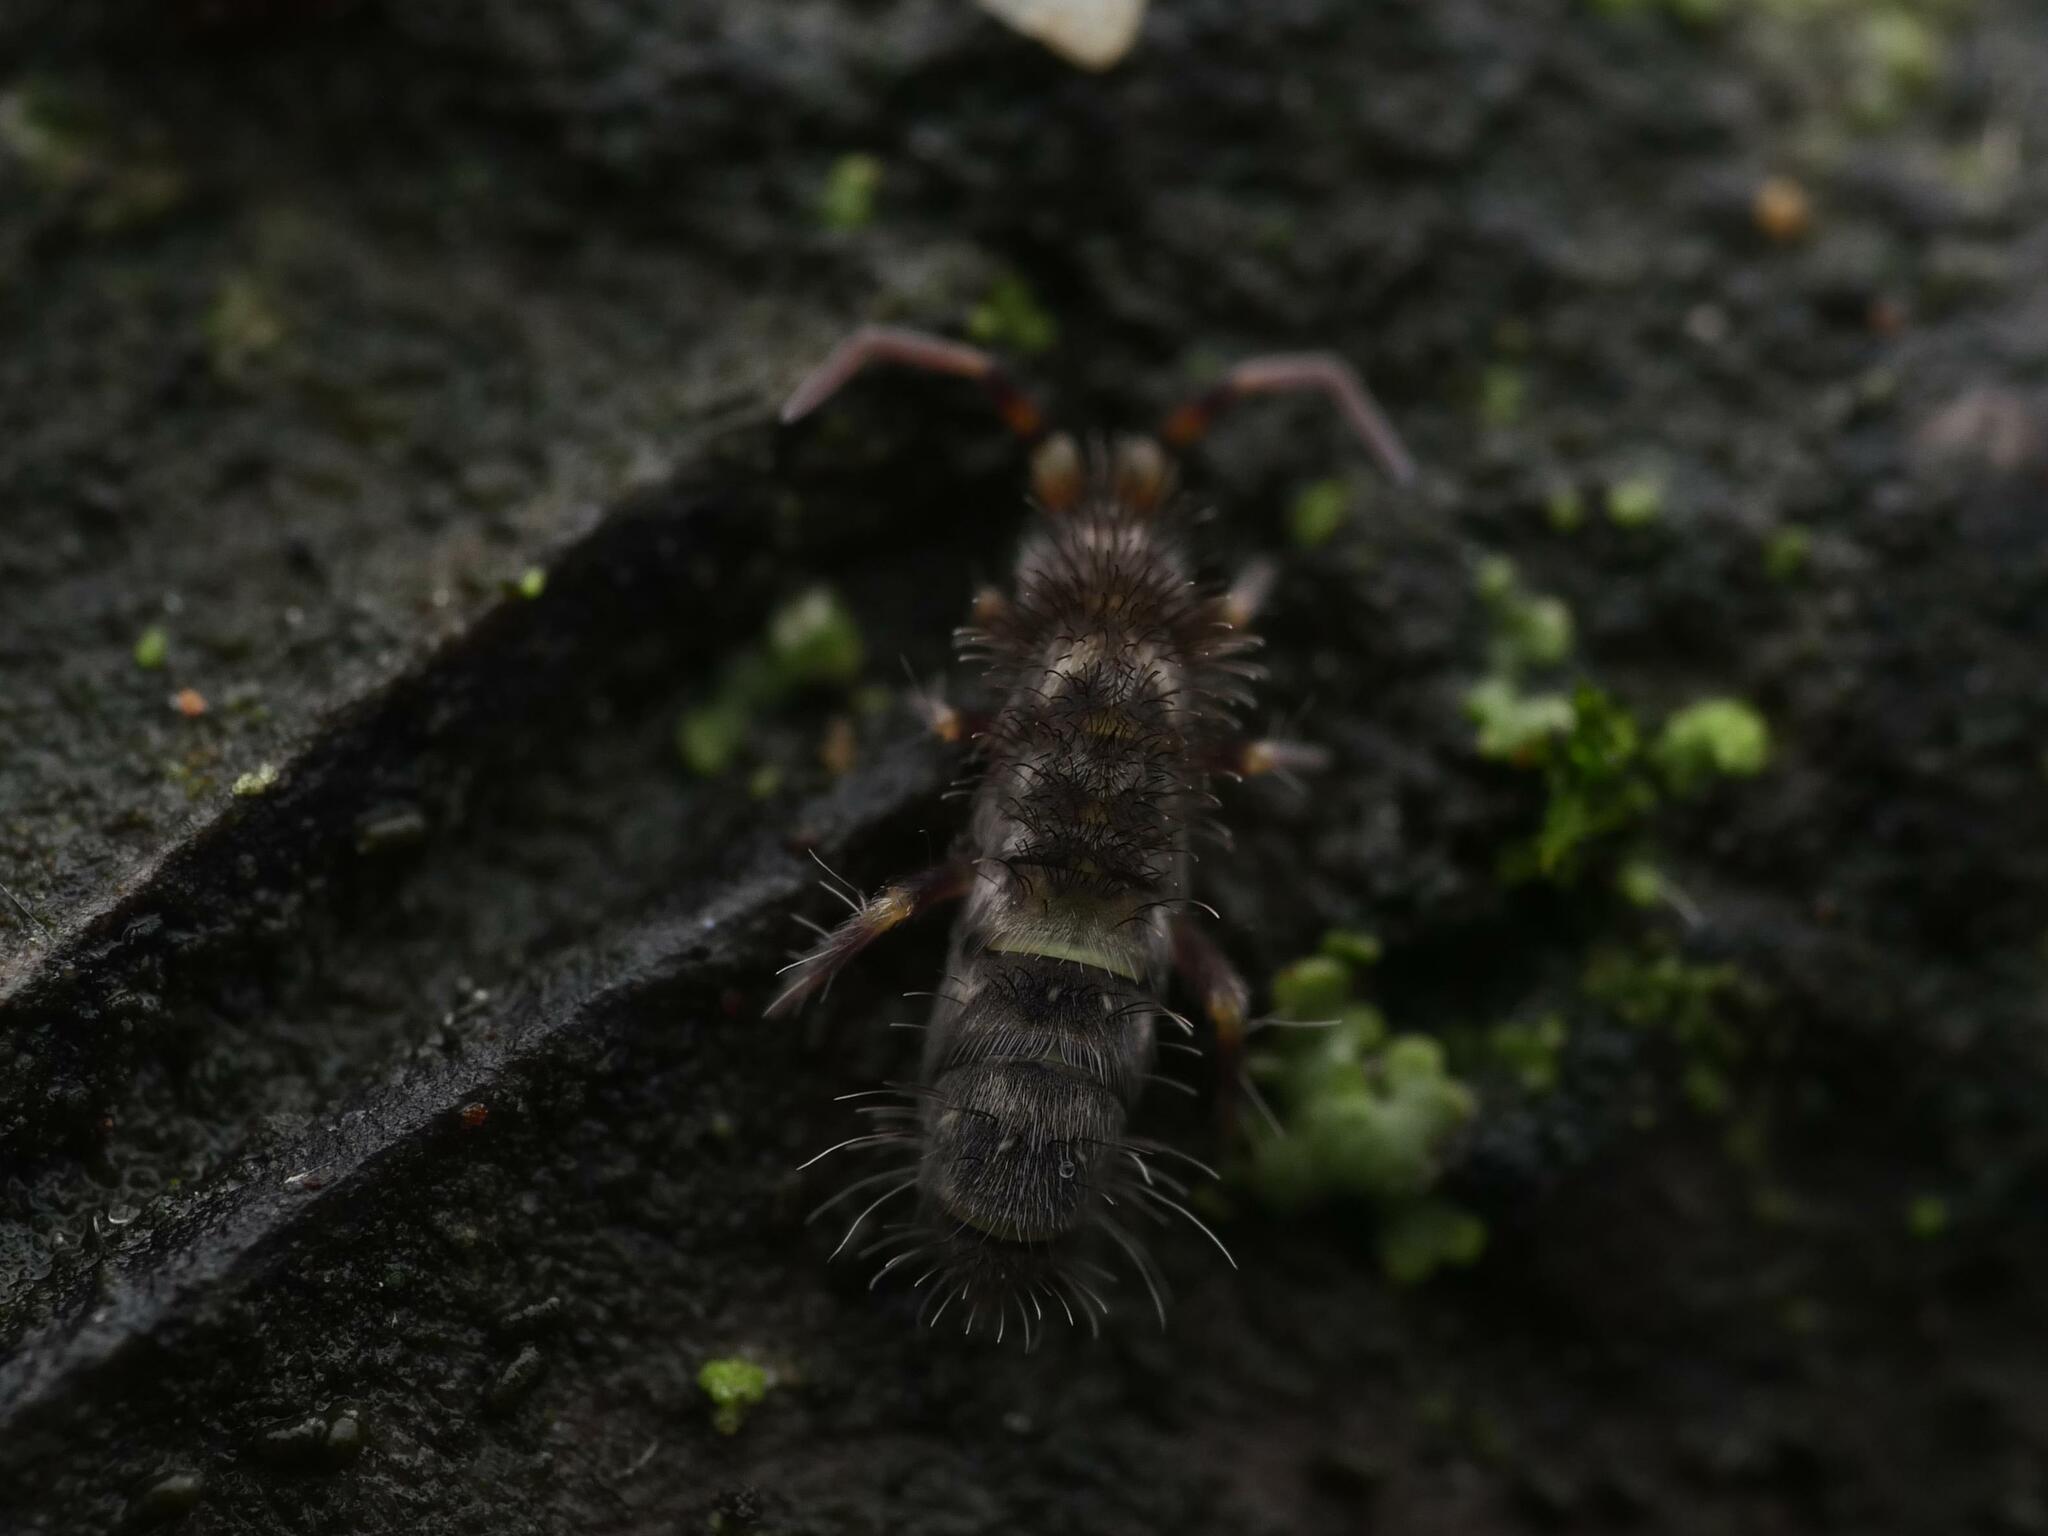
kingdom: Animalia
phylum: Arthropoda
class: Collembola
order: Entomobryomorpha
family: Orchesellidae
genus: Orchesella
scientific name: Orchesella cincta
